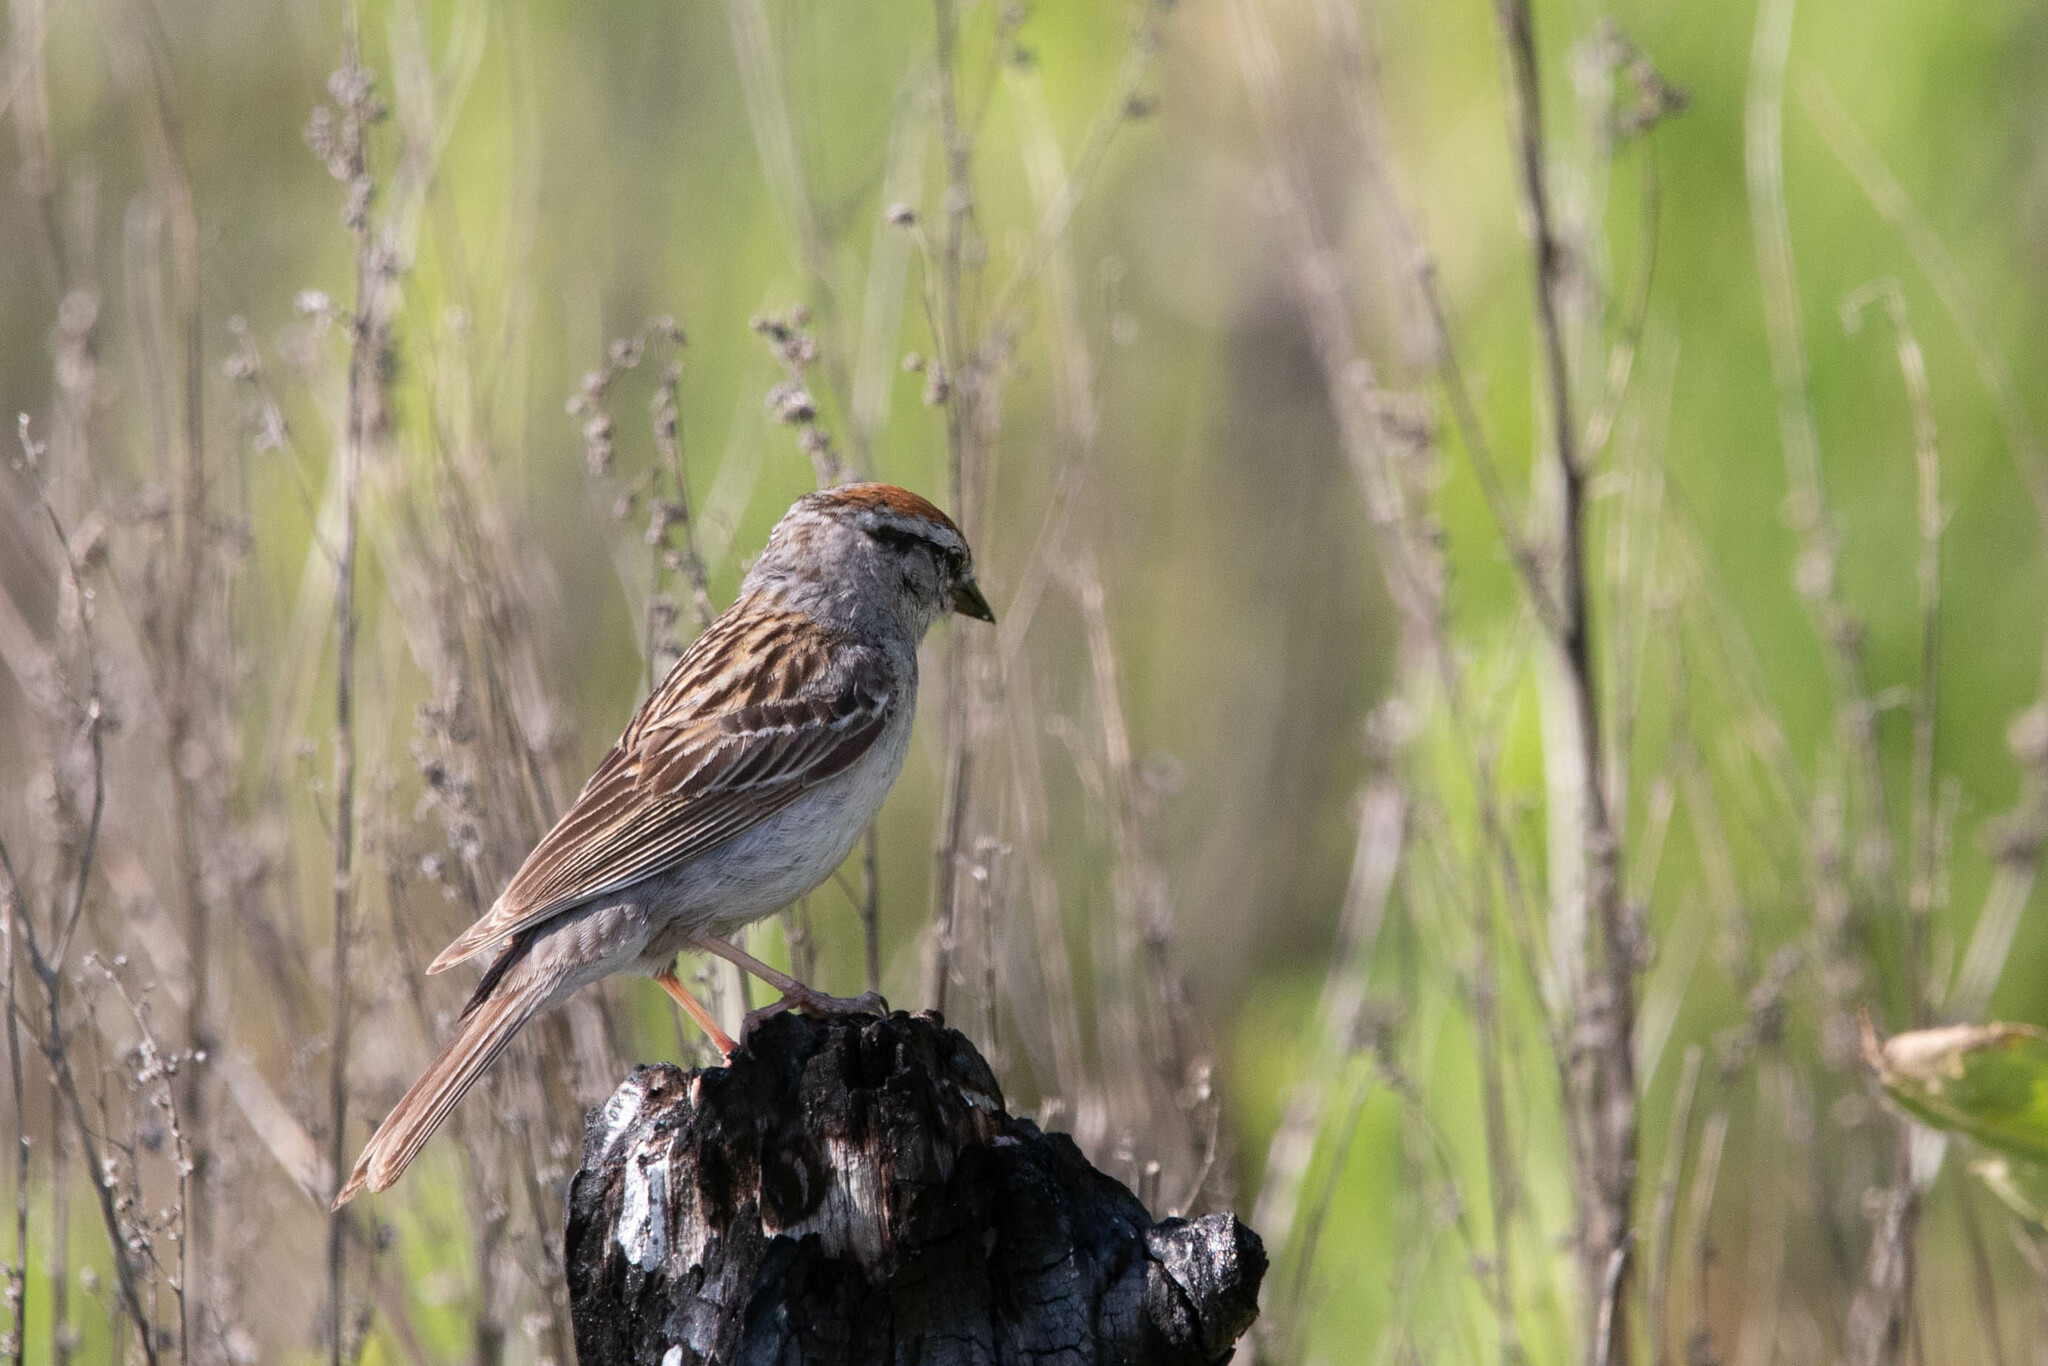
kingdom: Animalia
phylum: Chordata
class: Aves
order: Passeriformes
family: Passerellidae
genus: Spizella
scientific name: Spizella passerina
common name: Chipping sparrow
